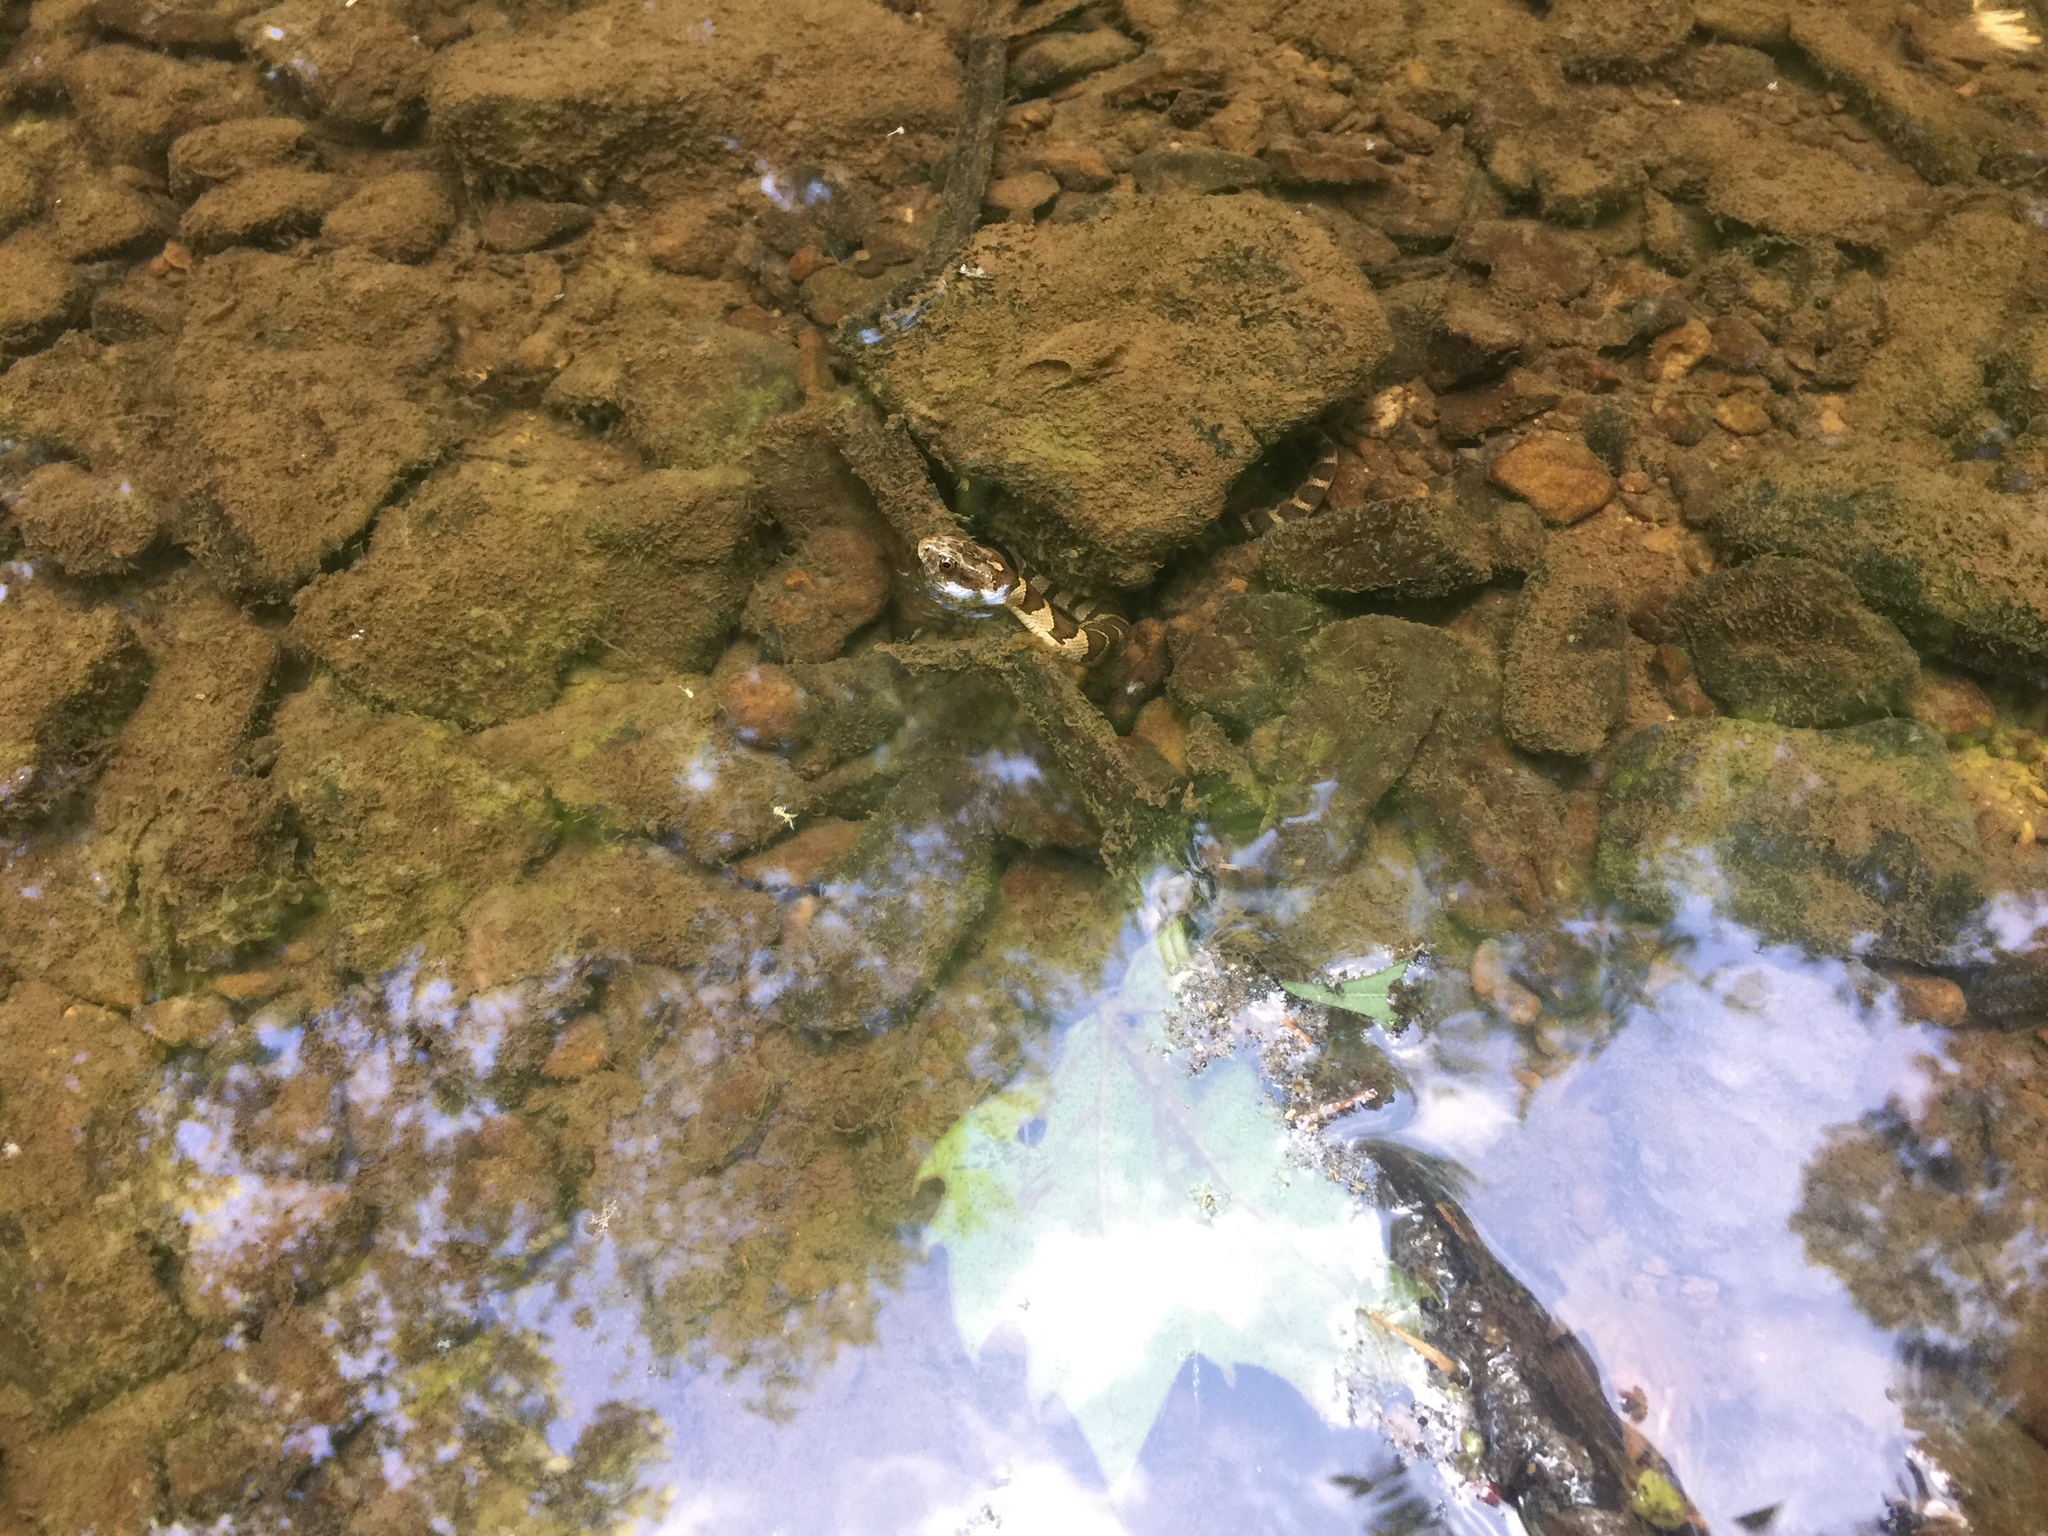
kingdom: Animalia
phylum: Chordata
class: Squamata
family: Colubridae
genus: Nerodia
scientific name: Nerodia sipedon
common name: Northern water snake
